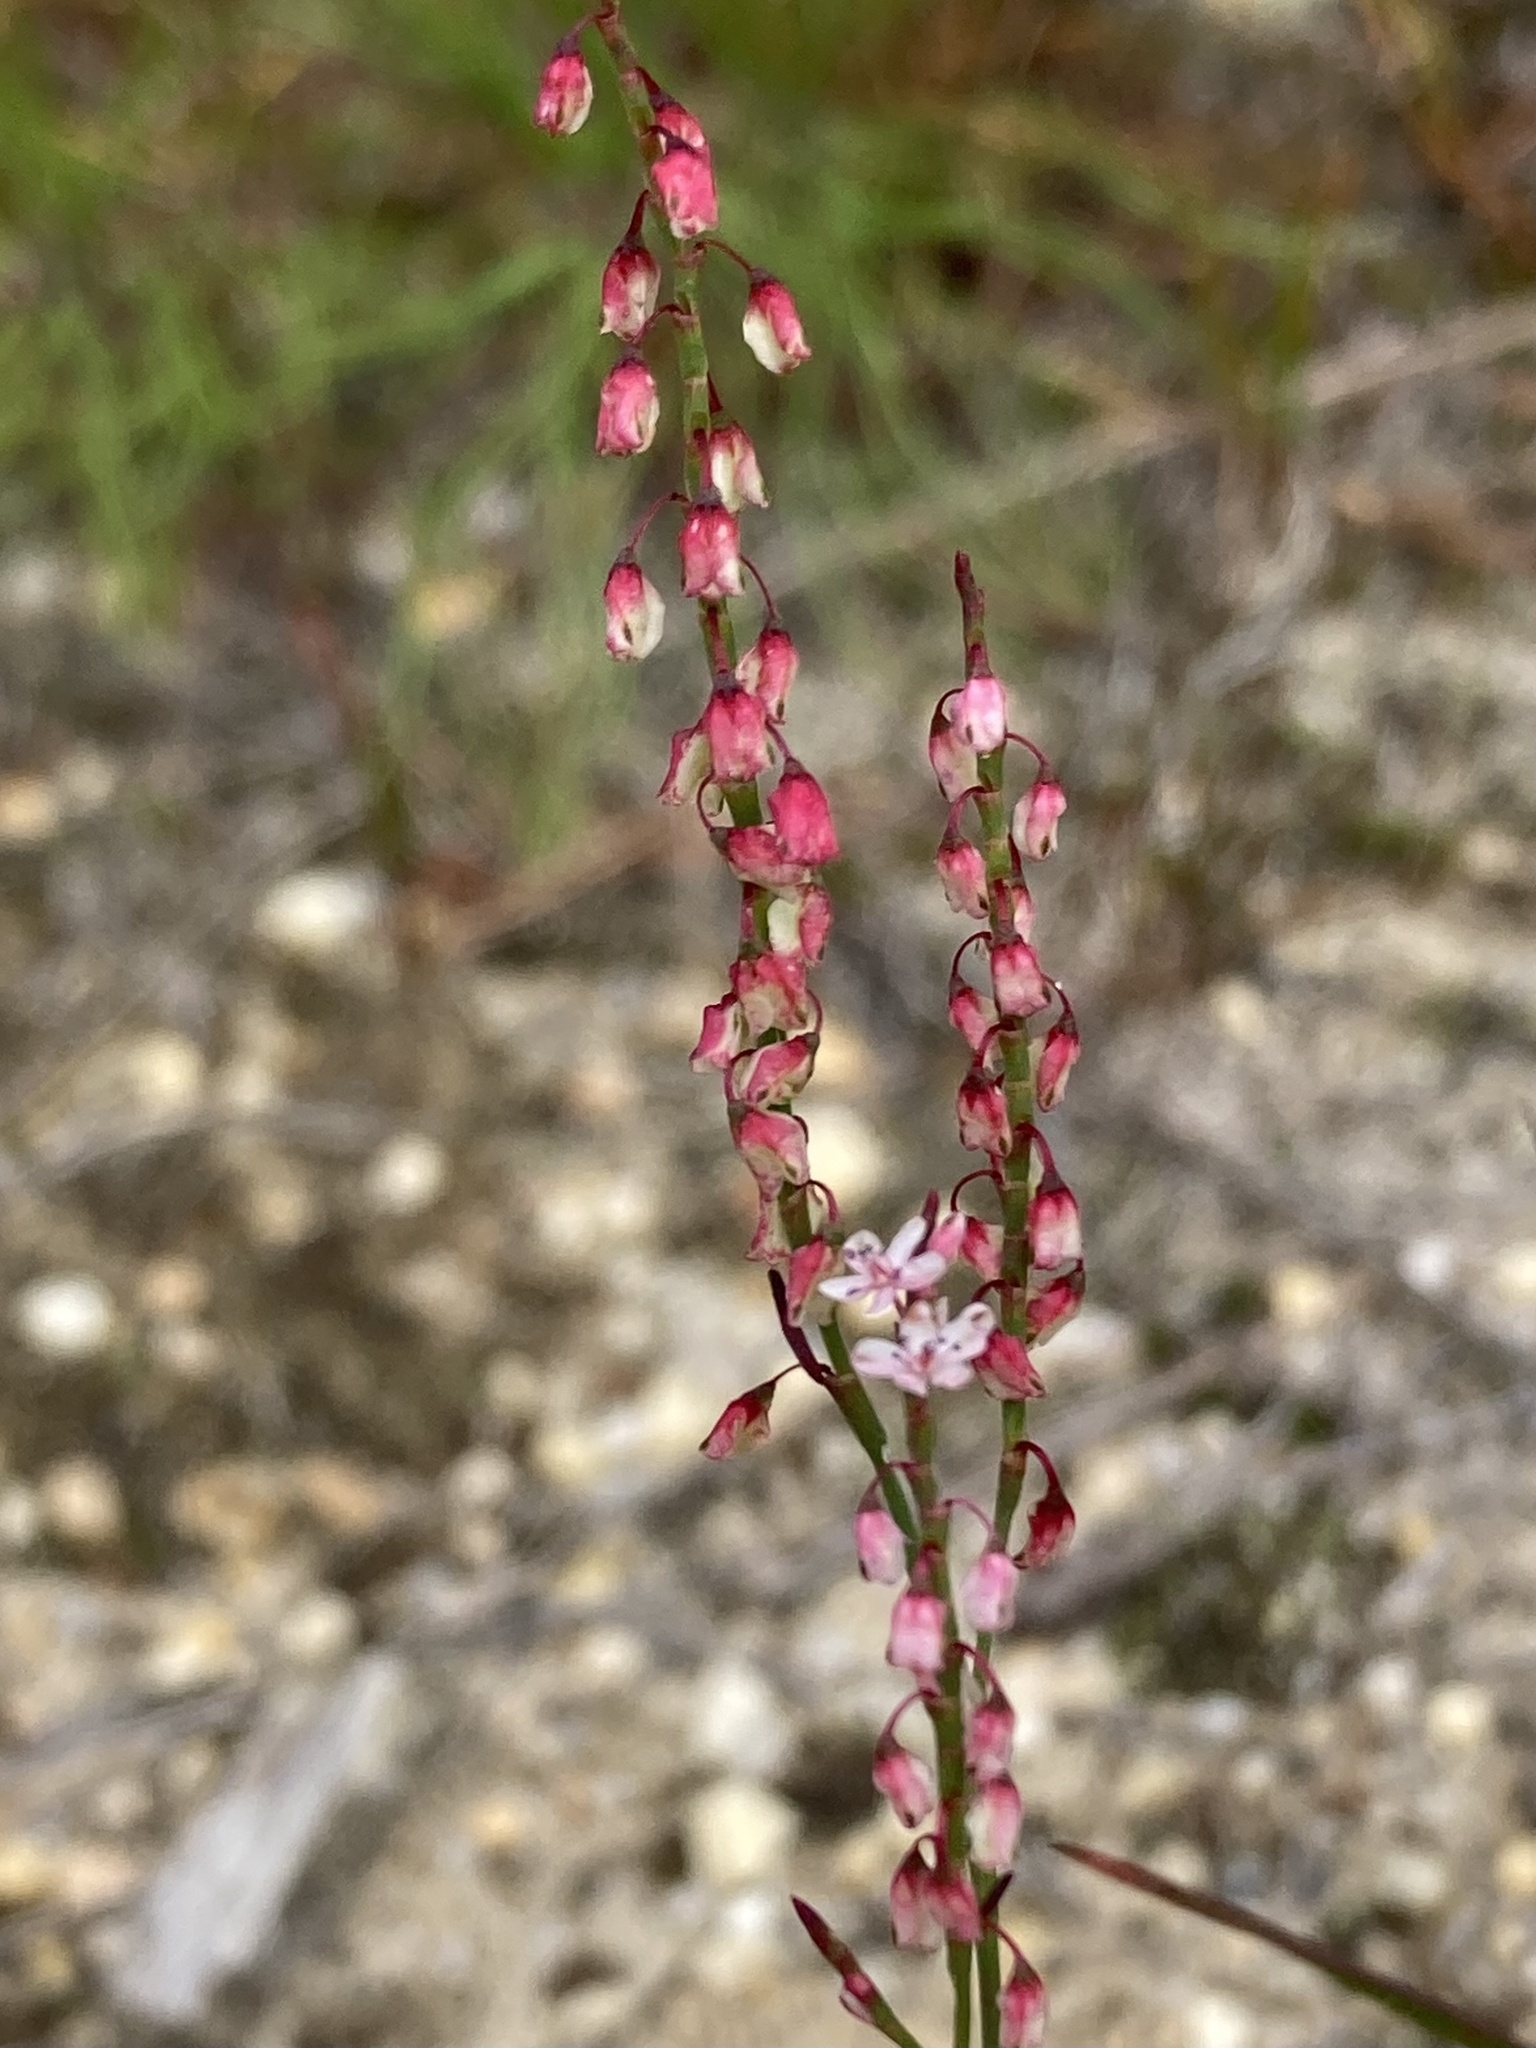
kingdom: Plantae
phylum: Tracheophyta
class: Magnoliopsida
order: Caryophyllales
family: Polygonaceae
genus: Polygonella
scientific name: Polygonella articulata
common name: Coastal jointweed
